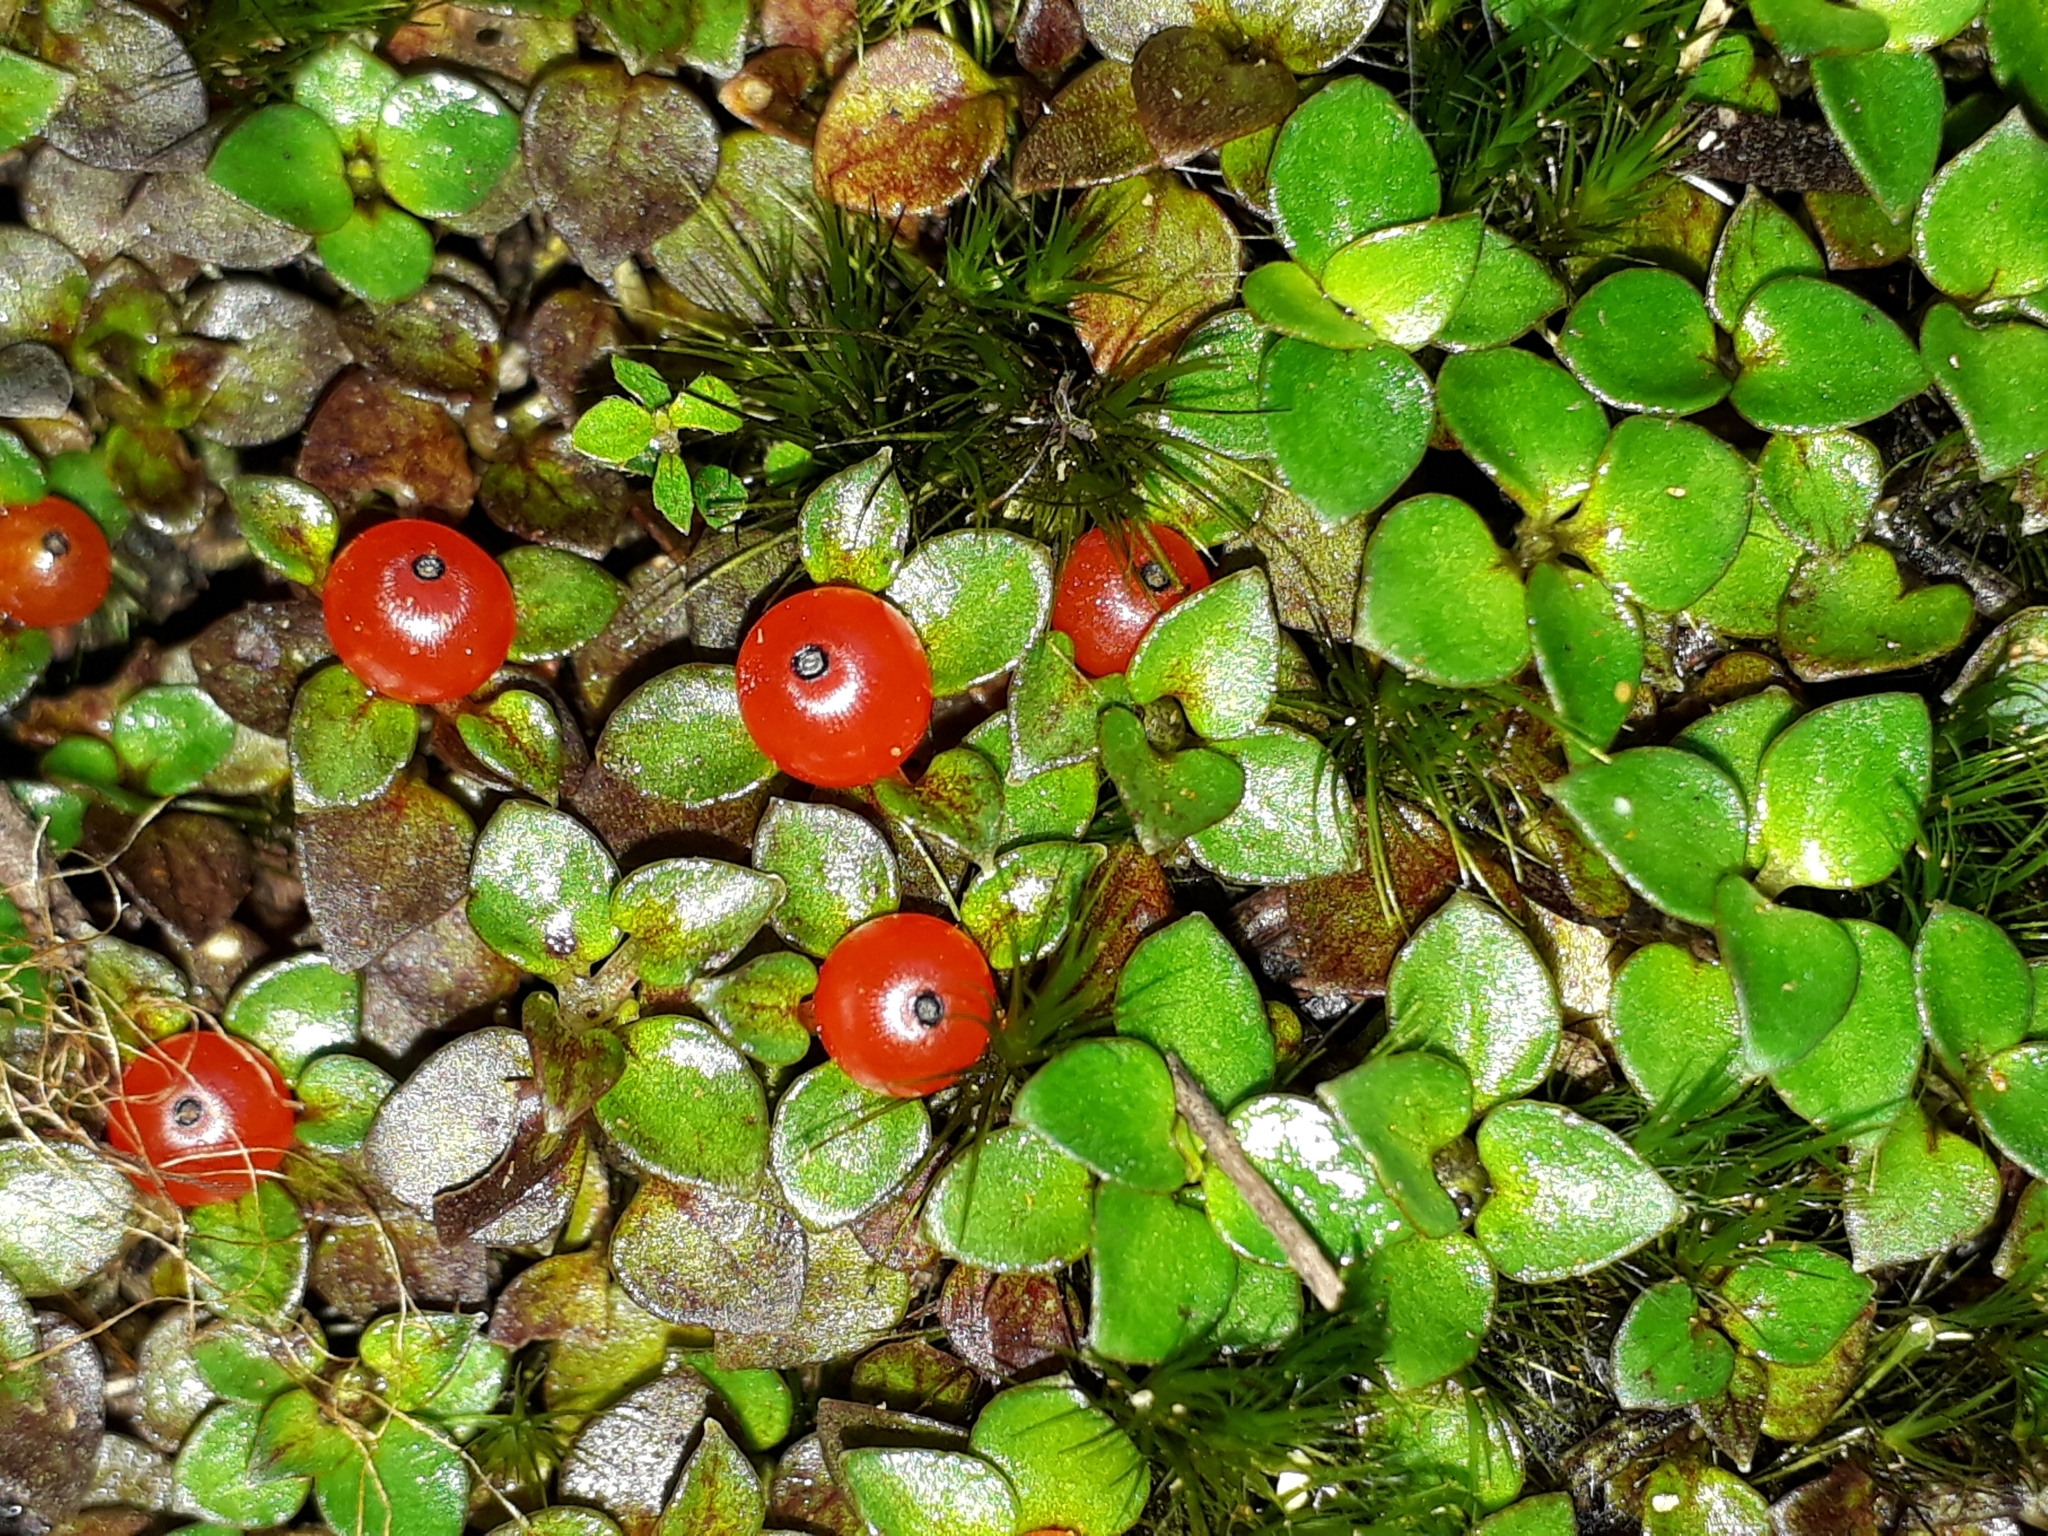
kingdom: Plantae
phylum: Tracheophyta
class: Magnoliopsida
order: Gentianales
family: Rubiaceae
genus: Nertera
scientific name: Nertera granadensis
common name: Beadplant
